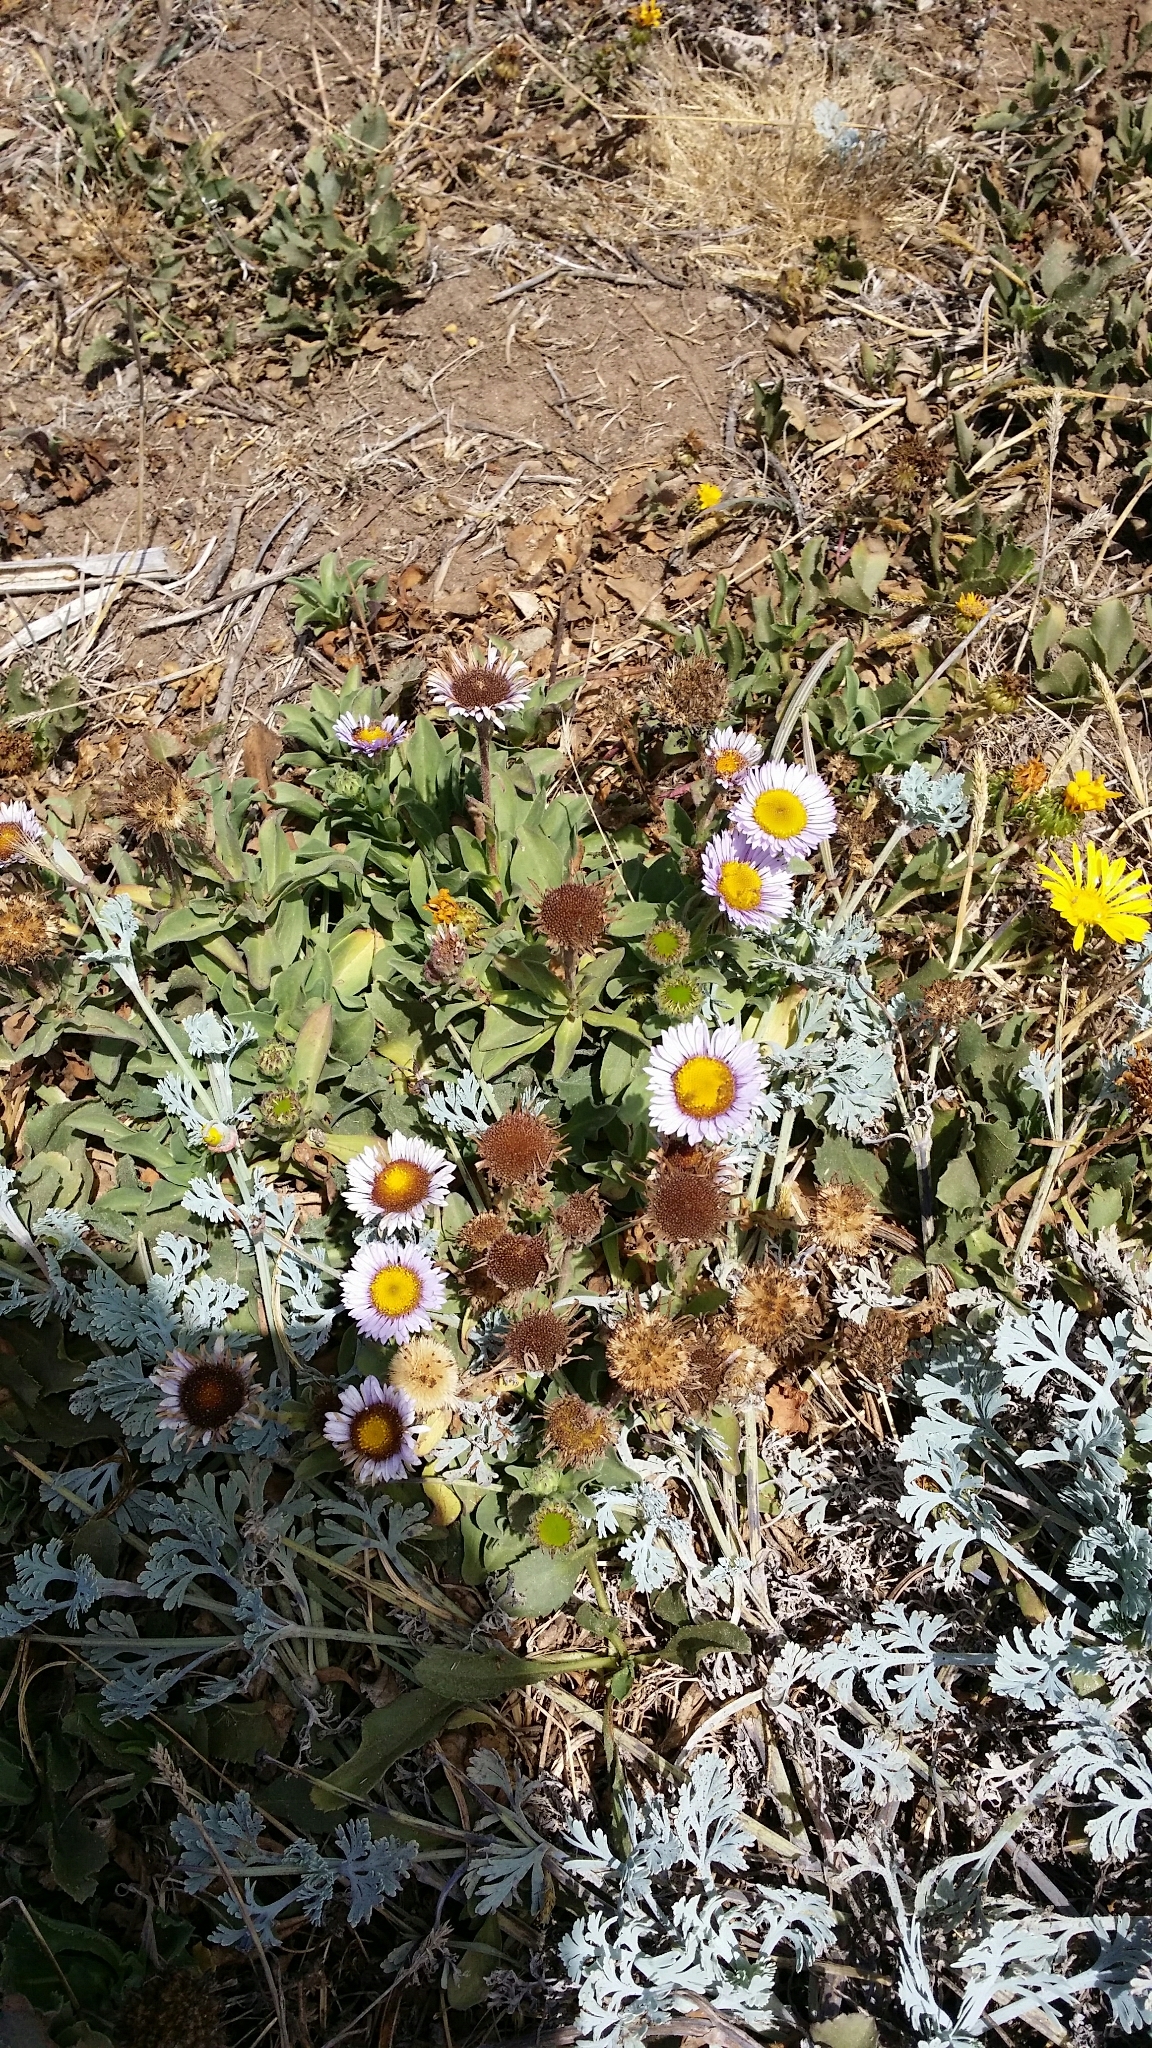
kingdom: Plantae
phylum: Tracheophyta
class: Magnoliopsida
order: Asterales
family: Asteraceae
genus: Erigeron
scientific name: Erigeron glaucus
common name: Seaside daisy
